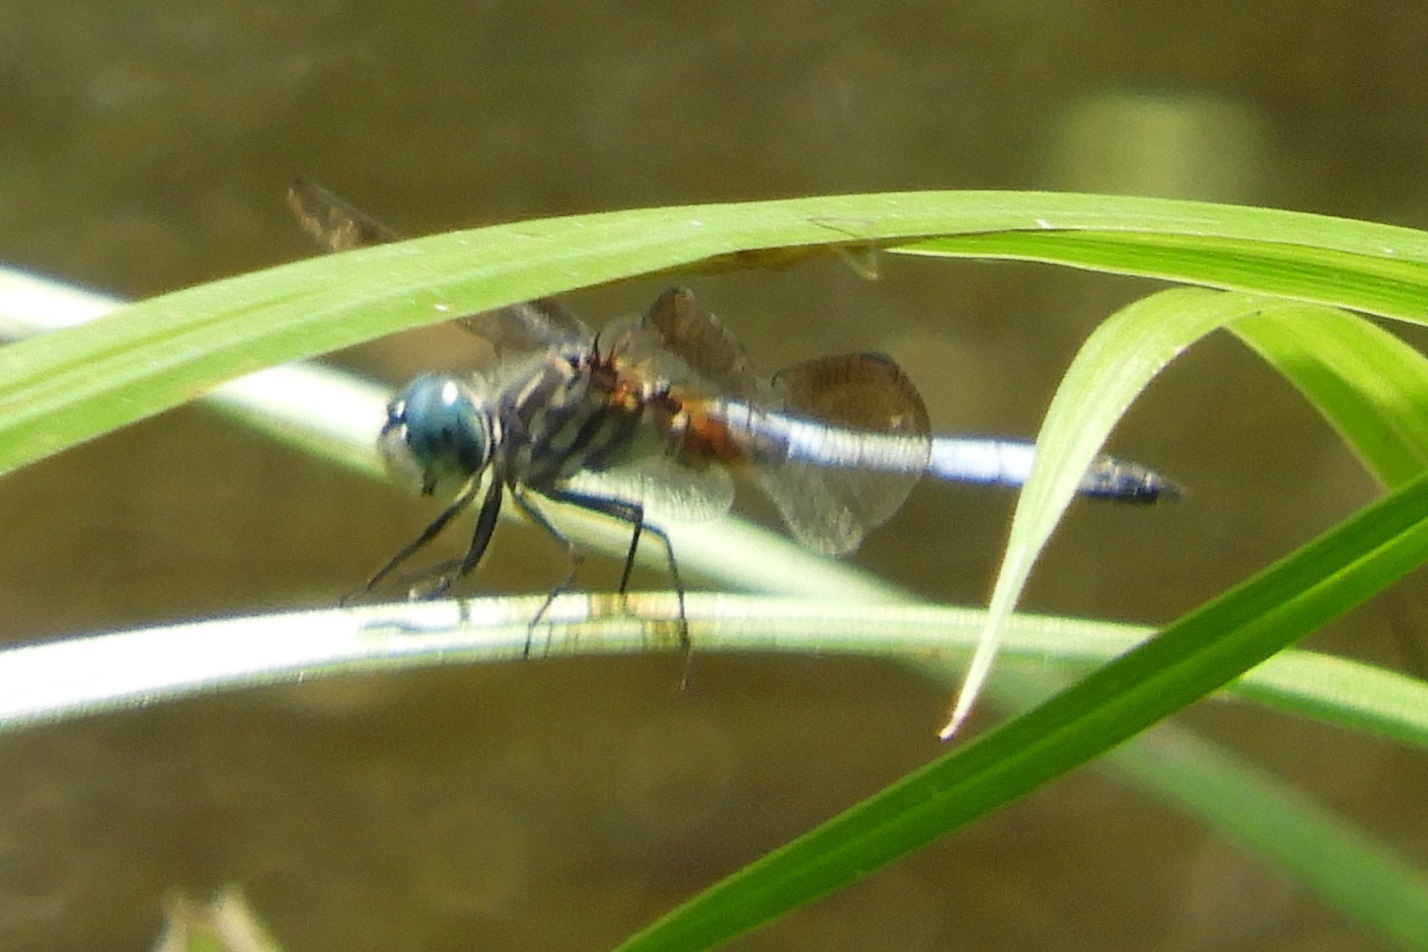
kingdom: Animalia
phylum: Arthropoda
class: Insecta
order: Odonata
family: Libellulidae
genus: Pachydiplax
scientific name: Pachydiplax longipennis
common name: Blue dasher
